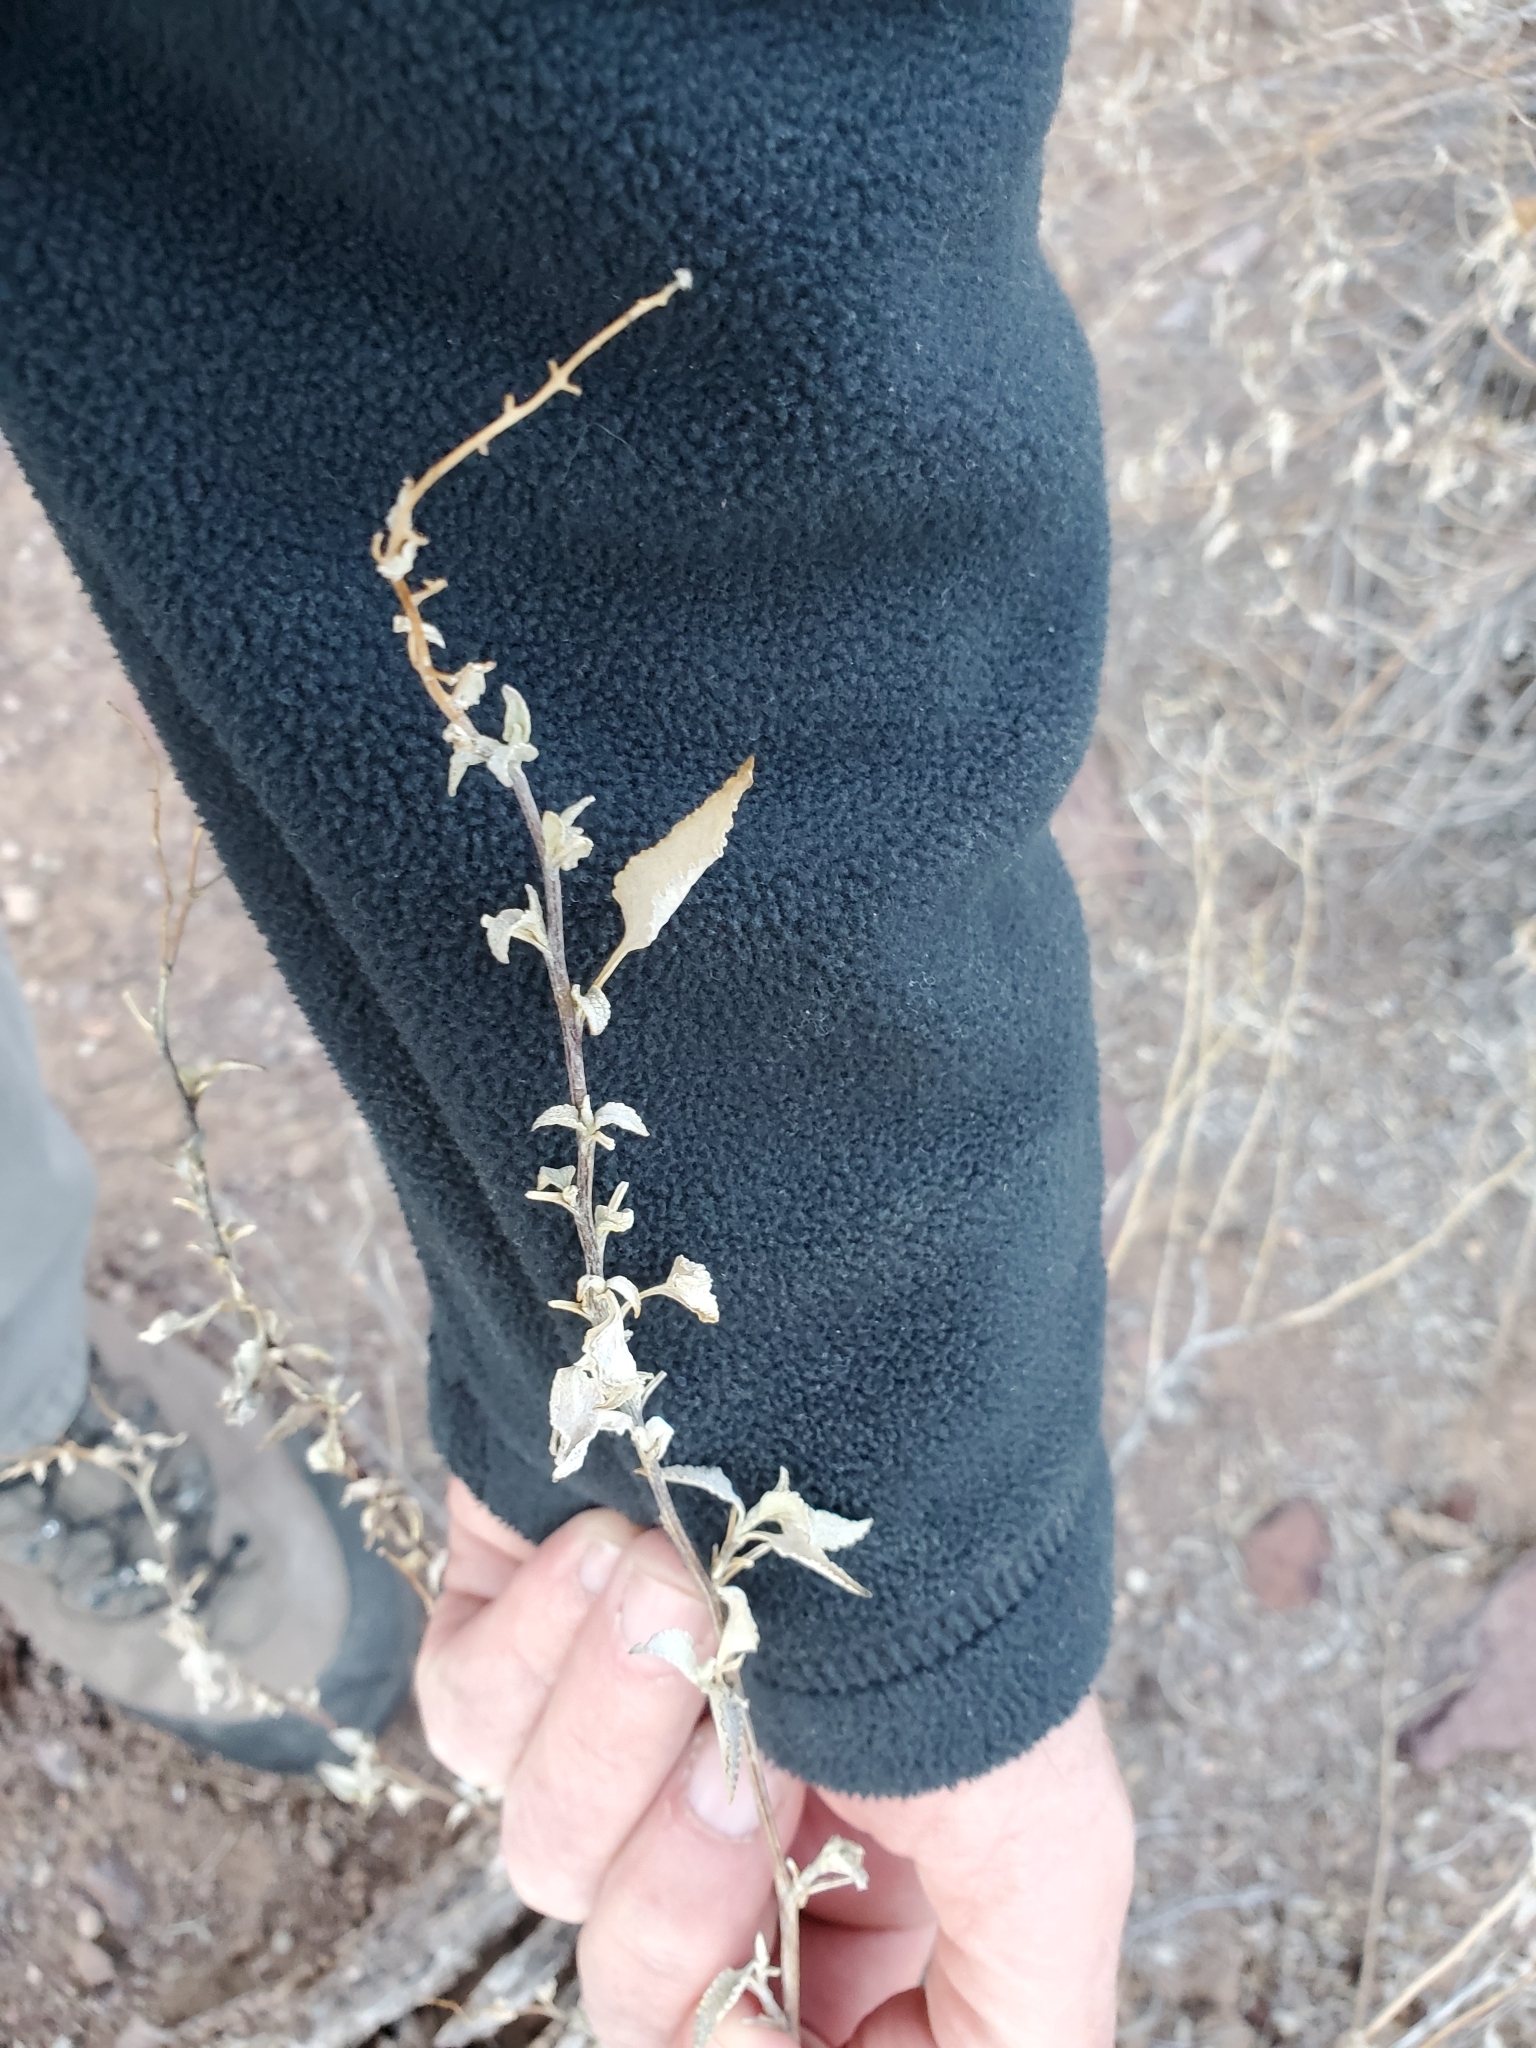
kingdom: Plantae
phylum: Tracheophyta
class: Magnoliopsida
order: Asterales
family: Asteraceae
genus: Ambrosia
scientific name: Ambrosia deltoidea
